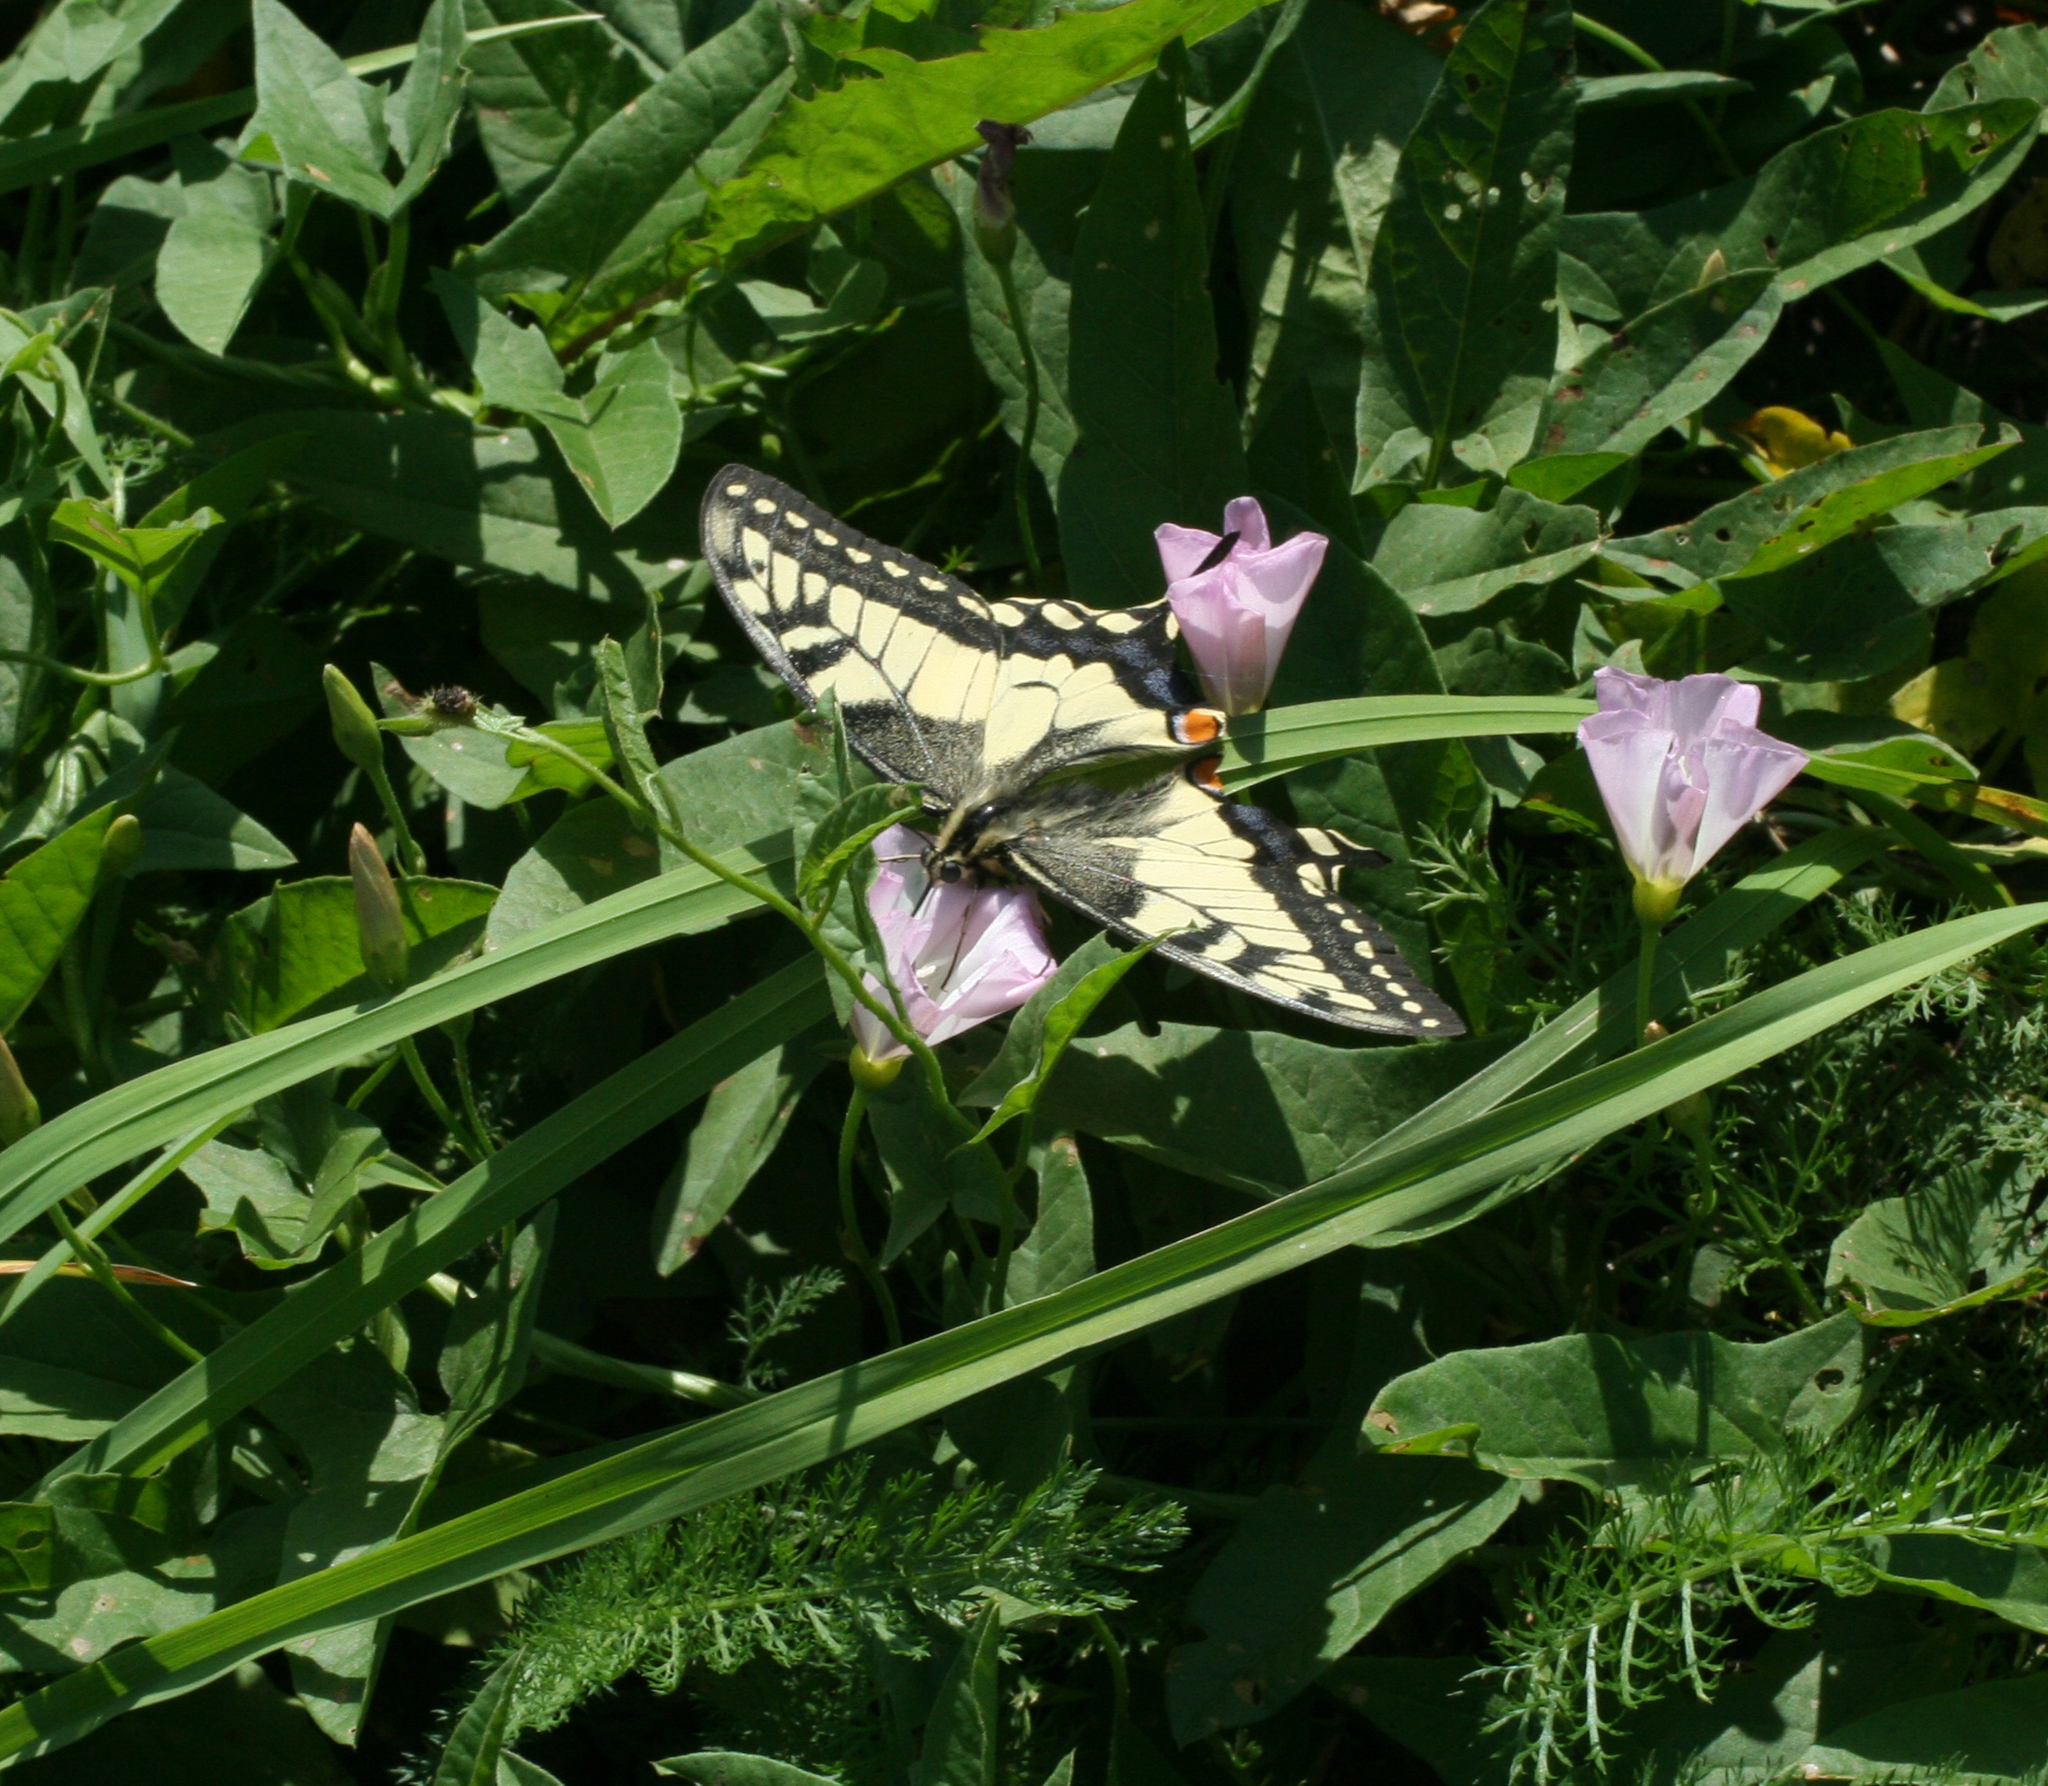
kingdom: Animalia
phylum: Arthropoda
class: Insecta
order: Lepidoptera
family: Papilionidae
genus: Papilio
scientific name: Papilio machaon
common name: Swallowtail
